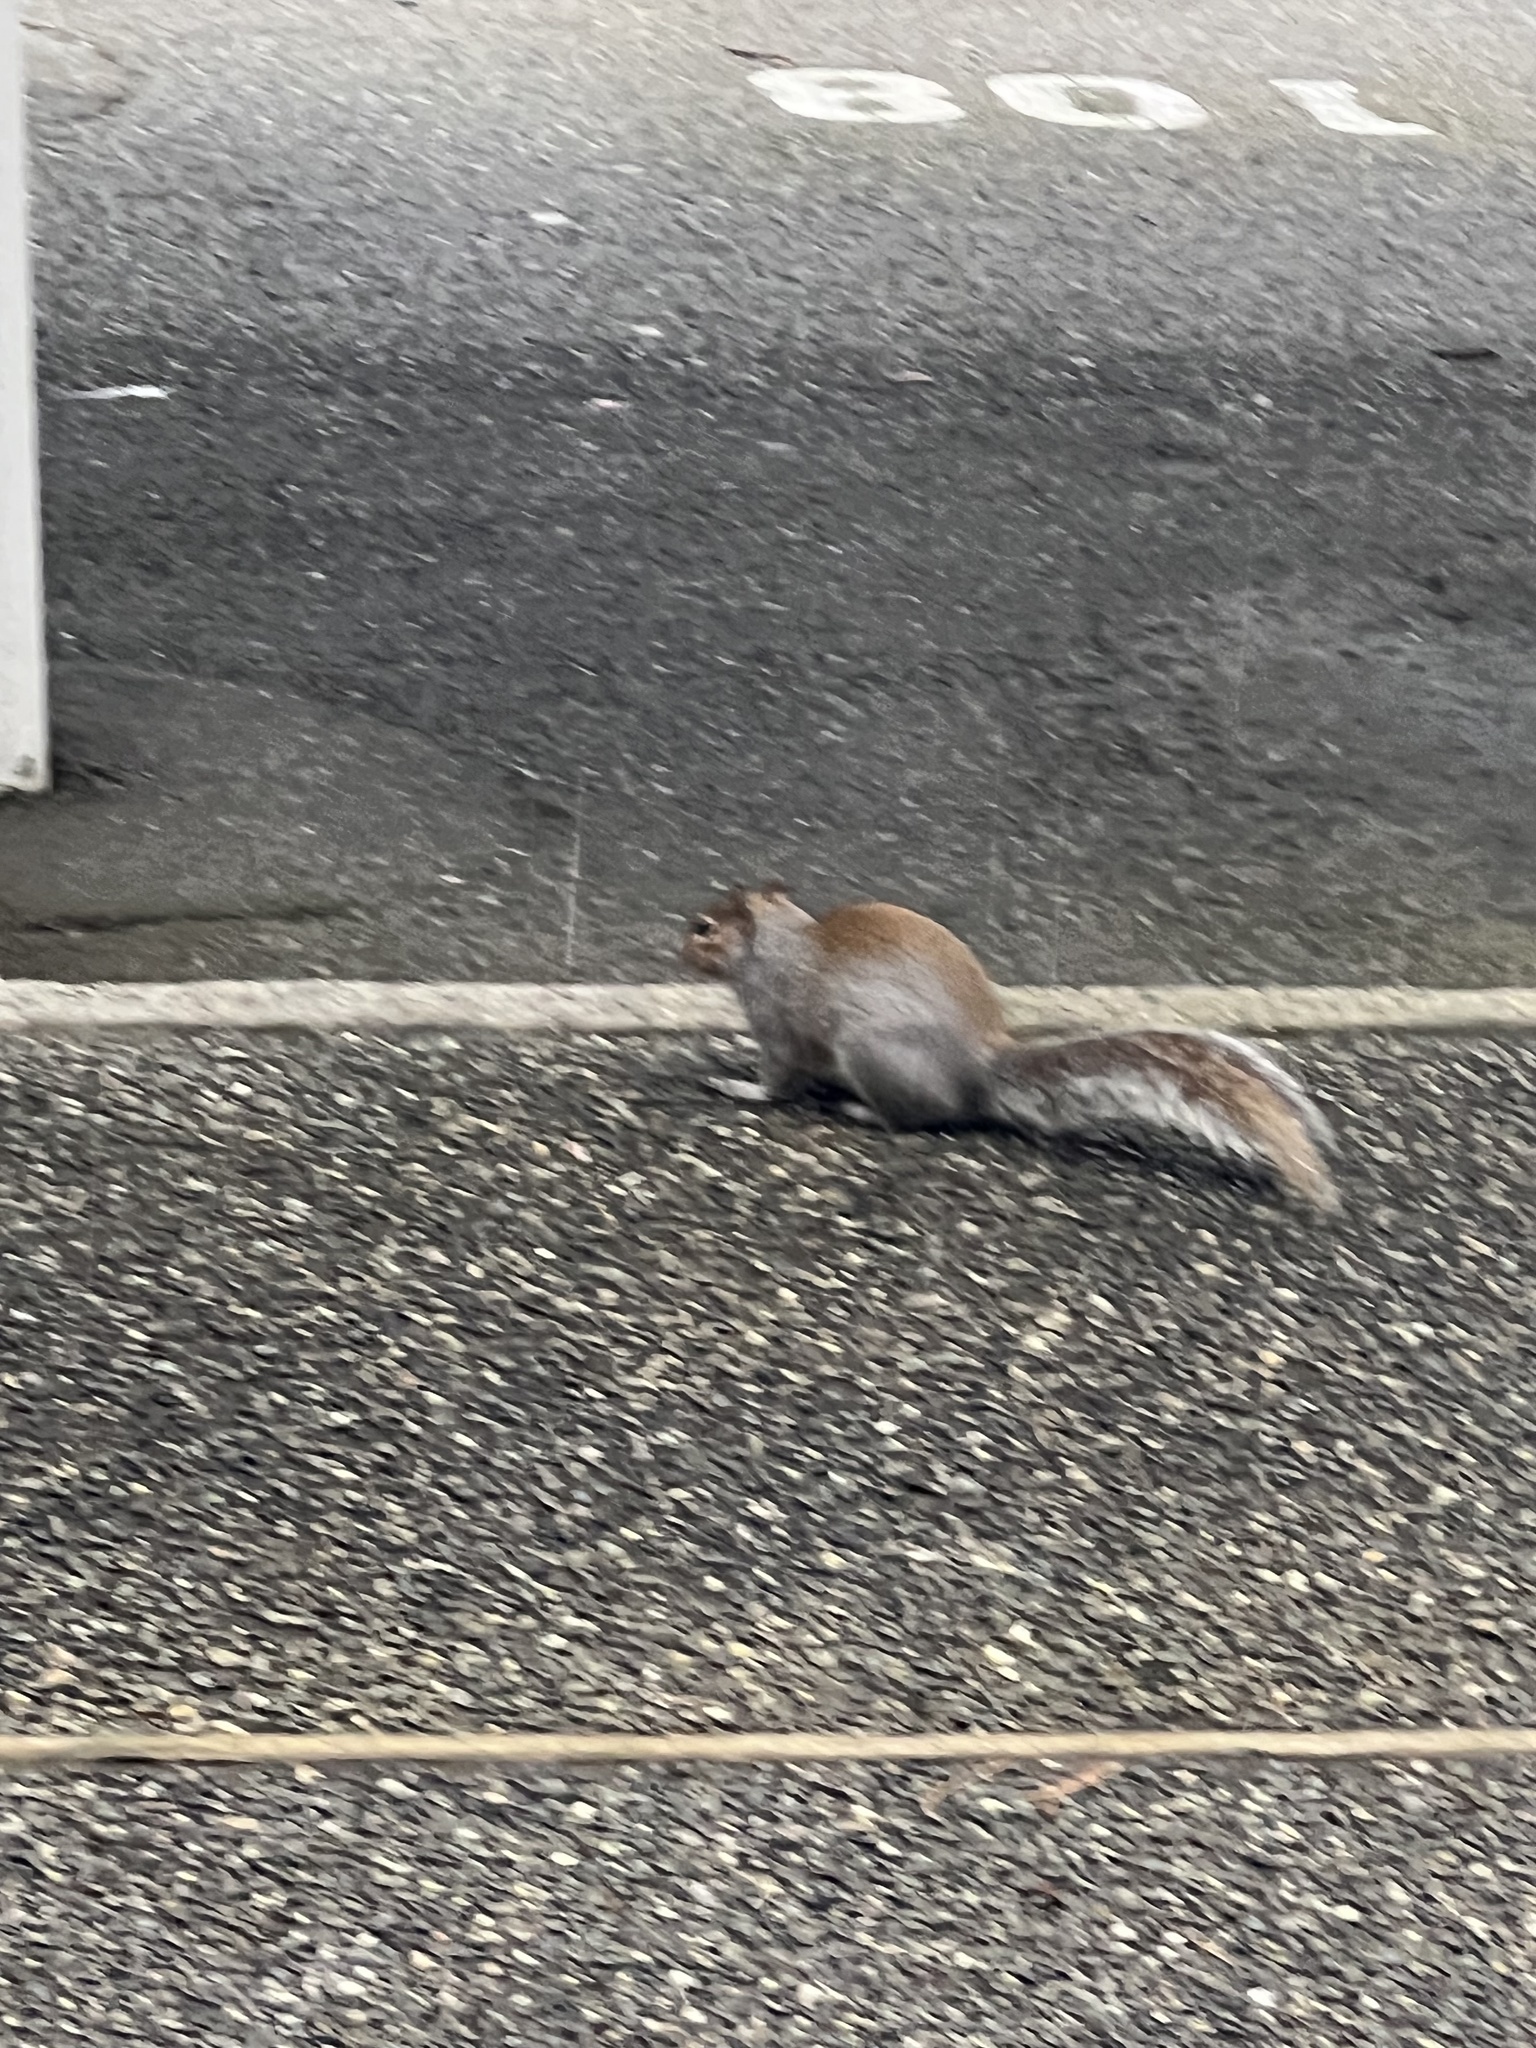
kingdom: Animalia
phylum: Chordata
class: Mammalia
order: Rodentia
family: Sciuridae
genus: Sciurus
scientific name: Sciurus carolinensis
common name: Eastern gray squirrel
